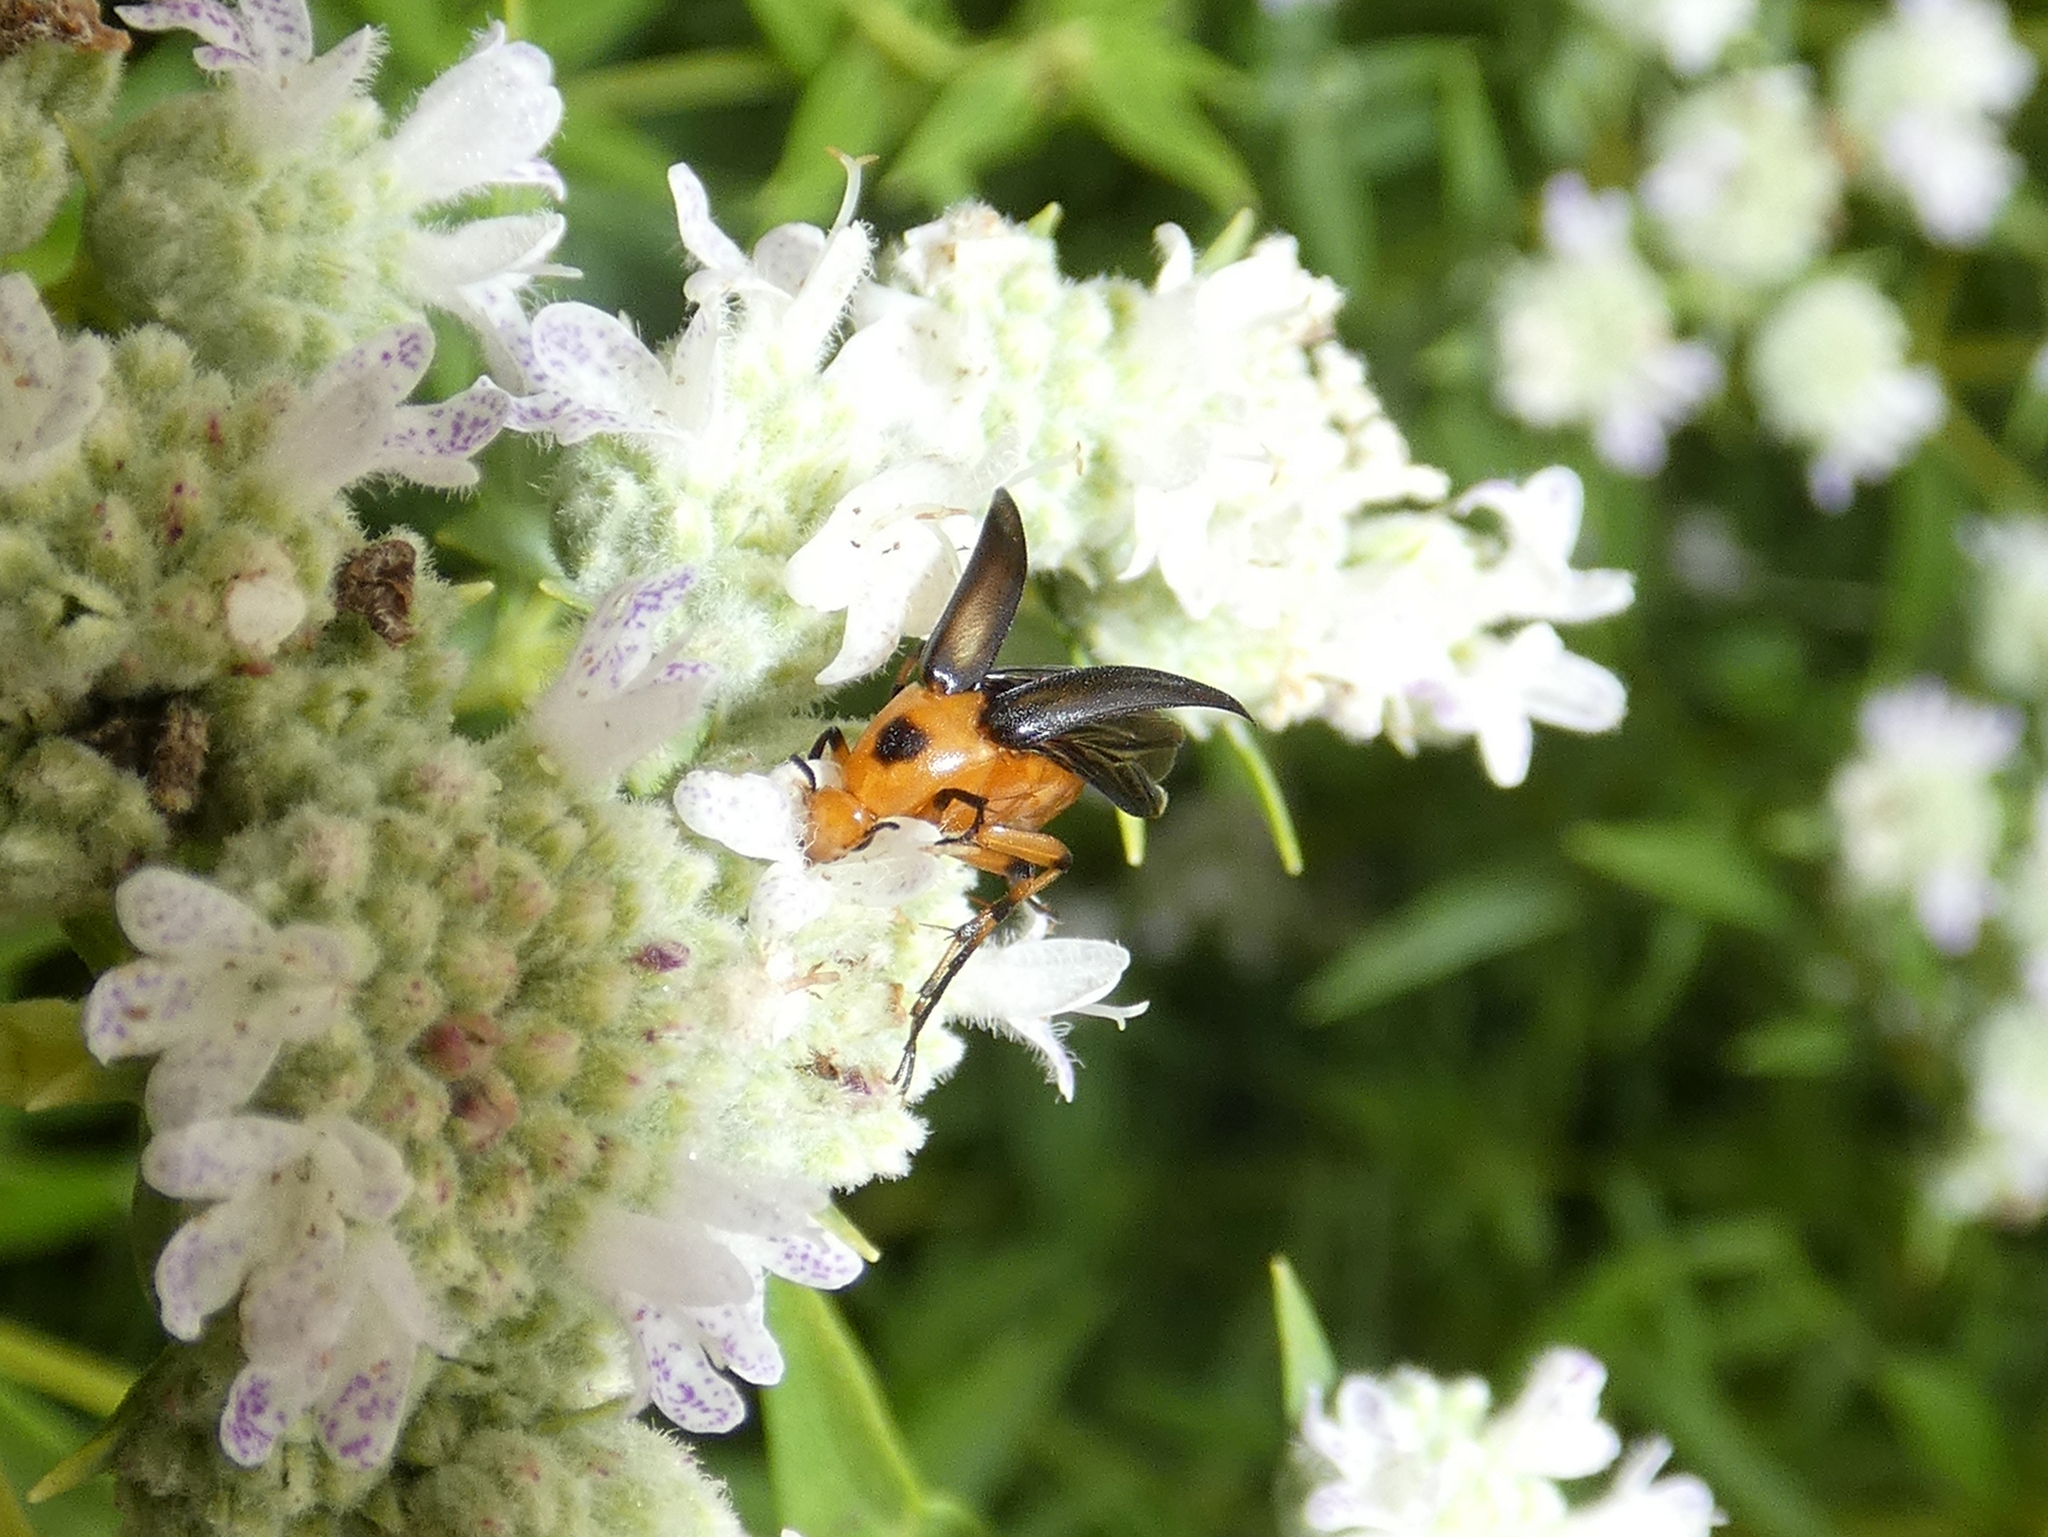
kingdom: Animalia
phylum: Arthropoda
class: Insecta
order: Coleoptera
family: Ripiphoridae
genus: Macrosiagon
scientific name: Macrosiagon limbatum
